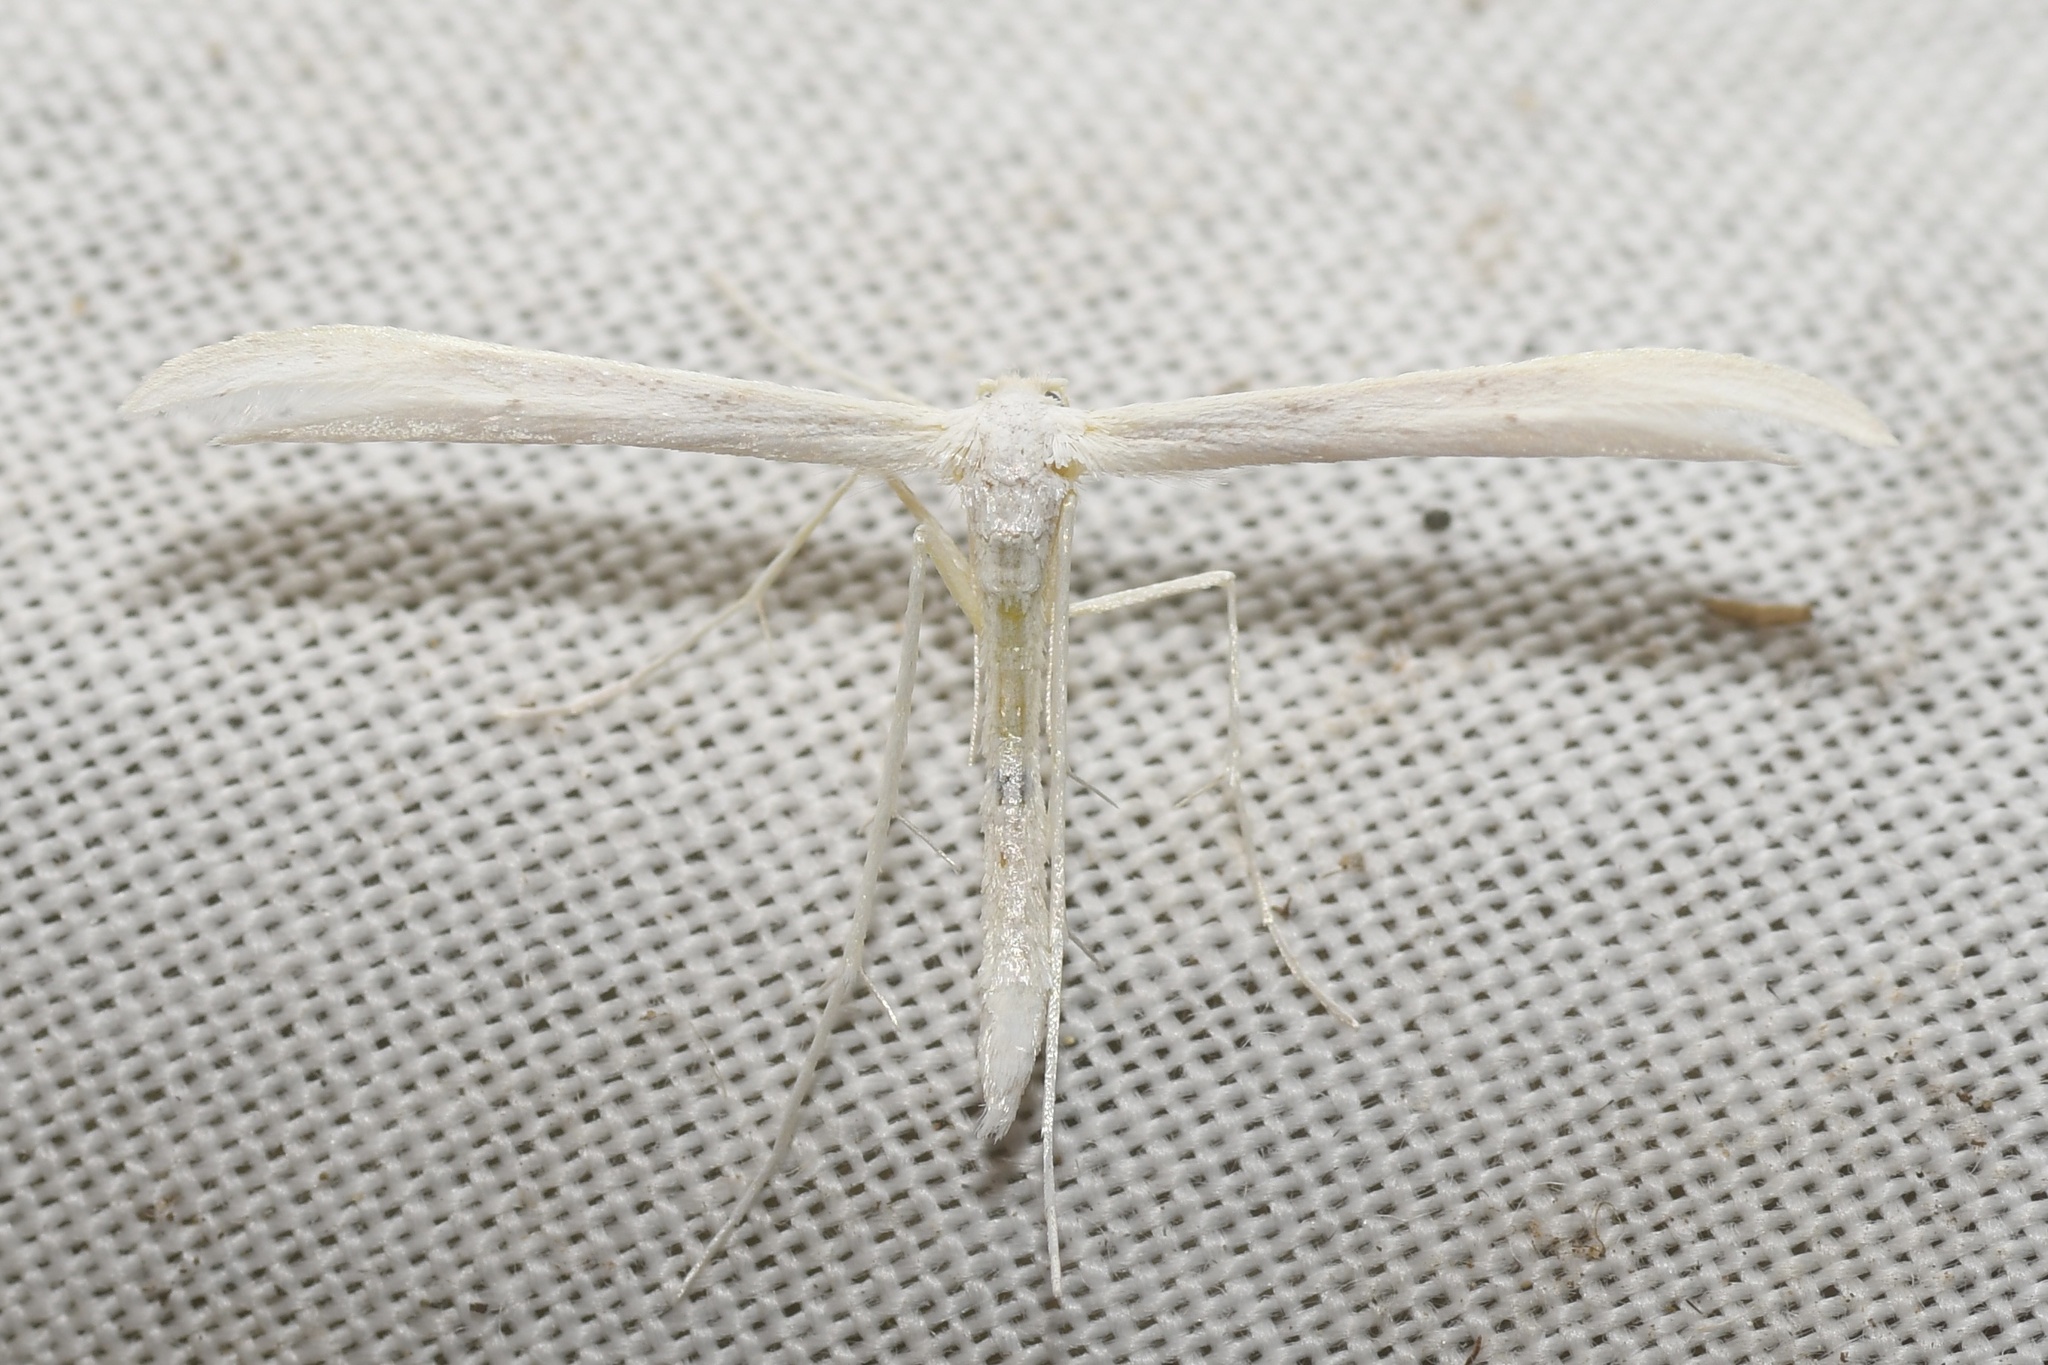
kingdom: Animalia
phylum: Arthropoda
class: Insecta
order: Lepidoptera
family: Pterophoridae
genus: Hellinsia
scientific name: Hellinsia homodactylus
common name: Plain plume moth
